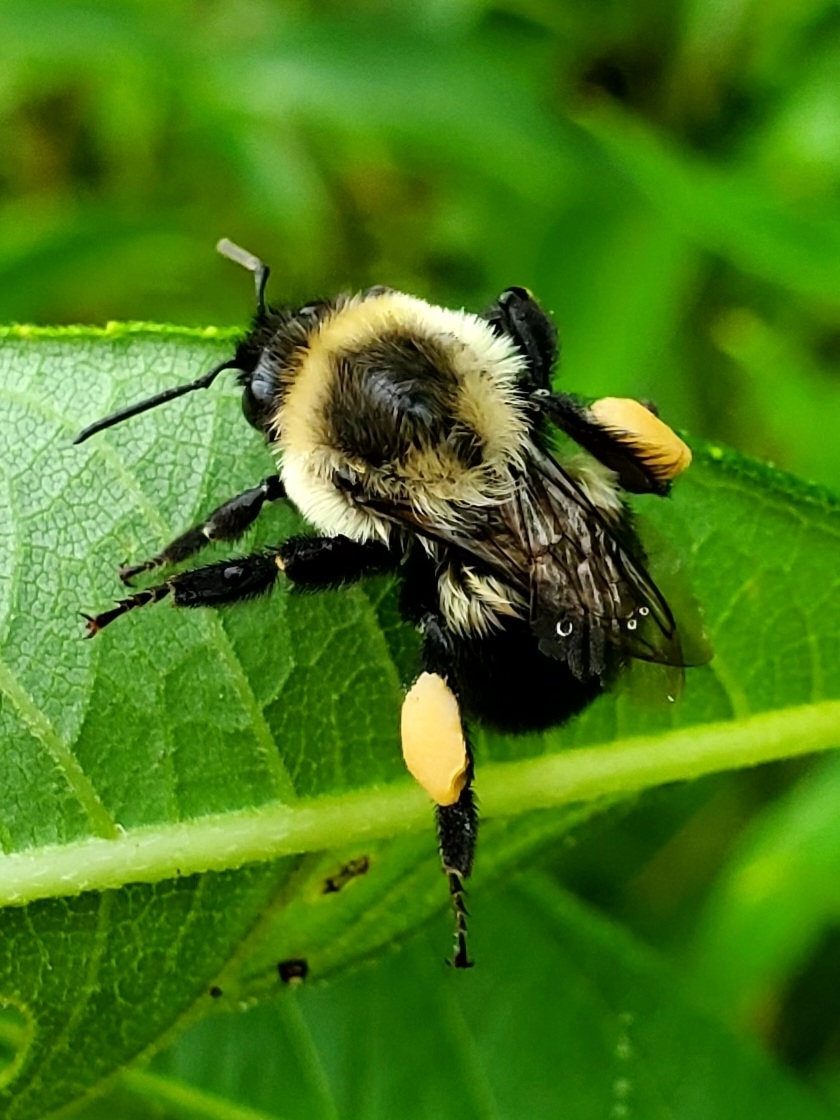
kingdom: Animalia
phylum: Arthropoda
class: Insecta
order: Hymenoptera
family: Apidae
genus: Bombus
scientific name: Bombus impatiens
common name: Common eastern bumble bee
